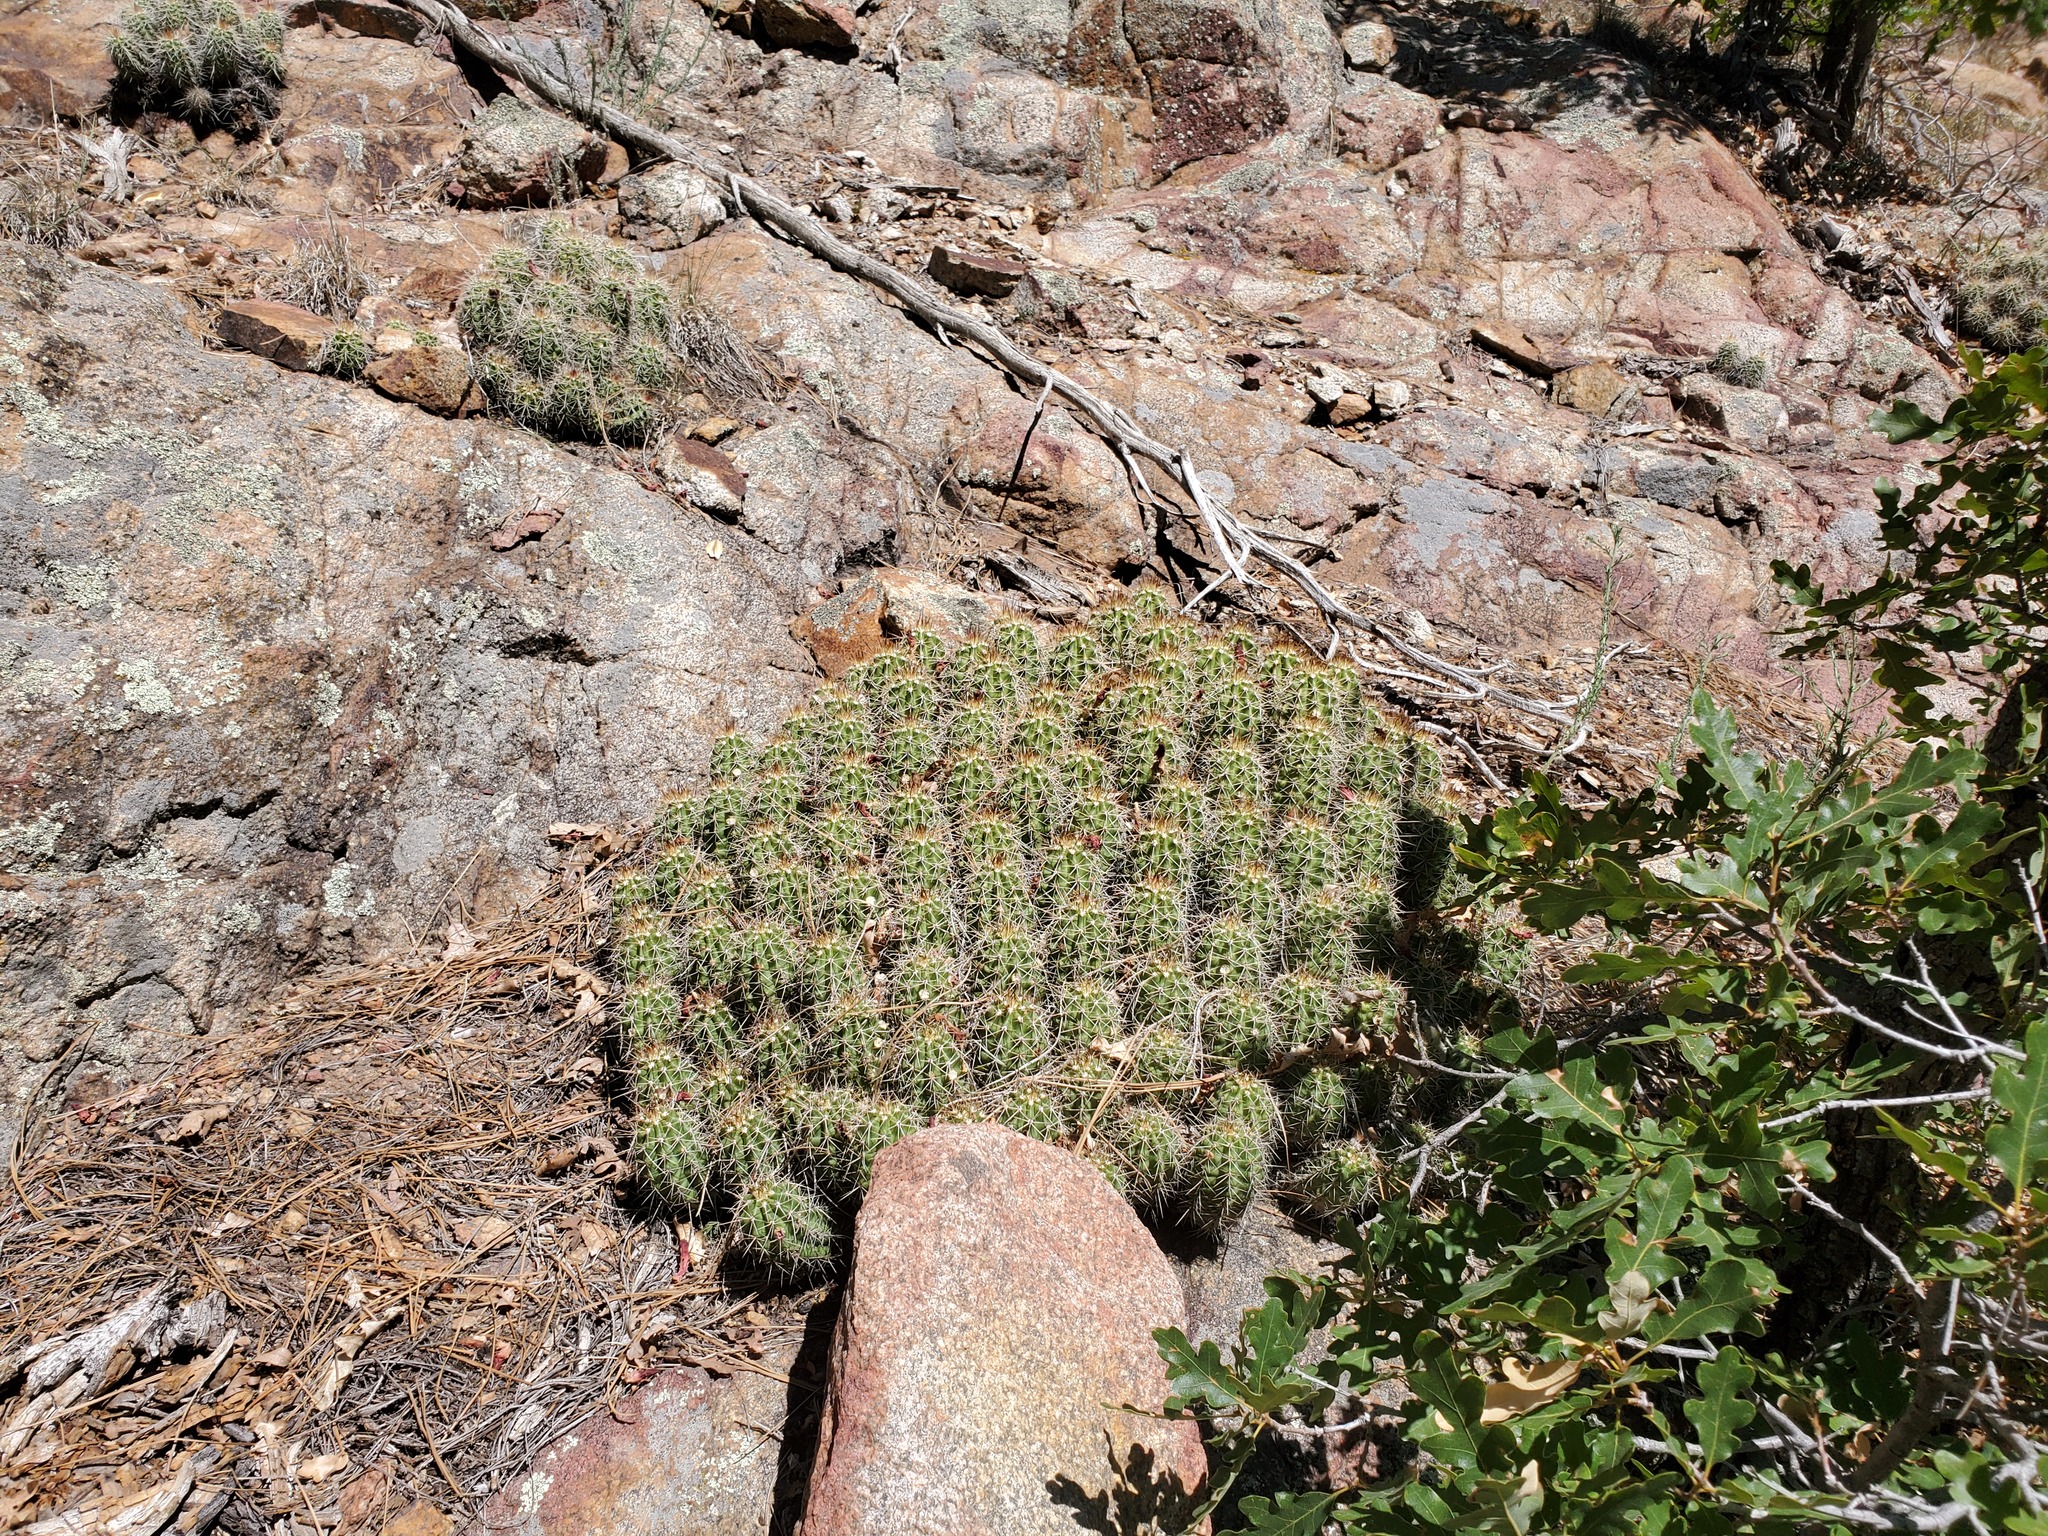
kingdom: Plantae
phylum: Tracheophyta
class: Magnoliopsida
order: Caryophyllales
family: Cactaceae
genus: Echinocereus
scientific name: Echinocereus yavapaiensis
